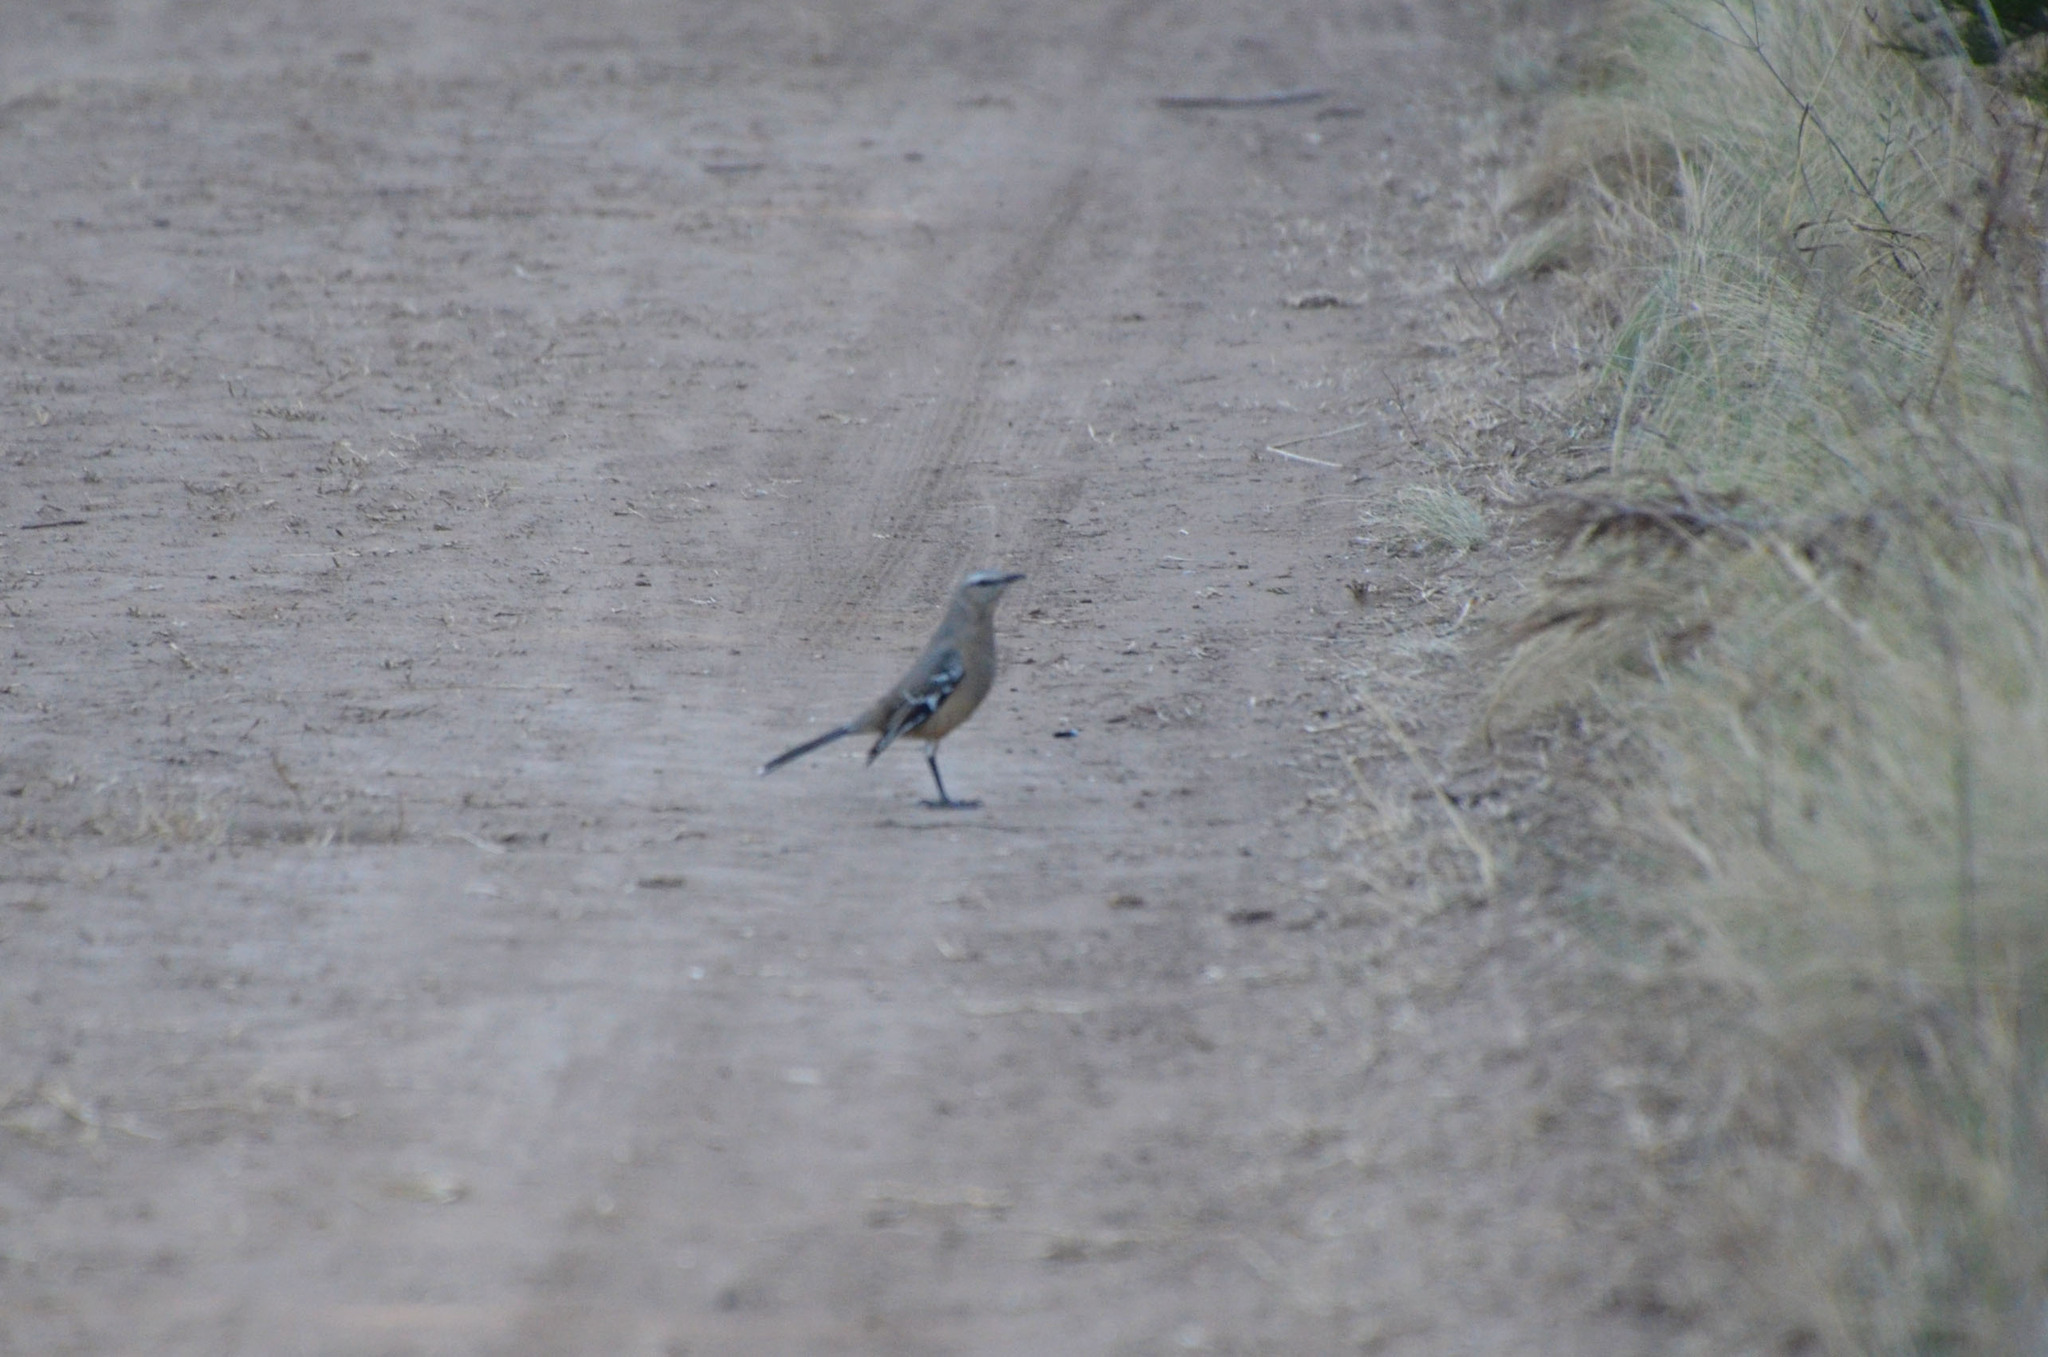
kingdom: Animalia
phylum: Chordata
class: Aves
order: Passeriformes
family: Mimidae
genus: Mimus
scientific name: Mimus patagonicus
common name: Patagonian mockingbird
